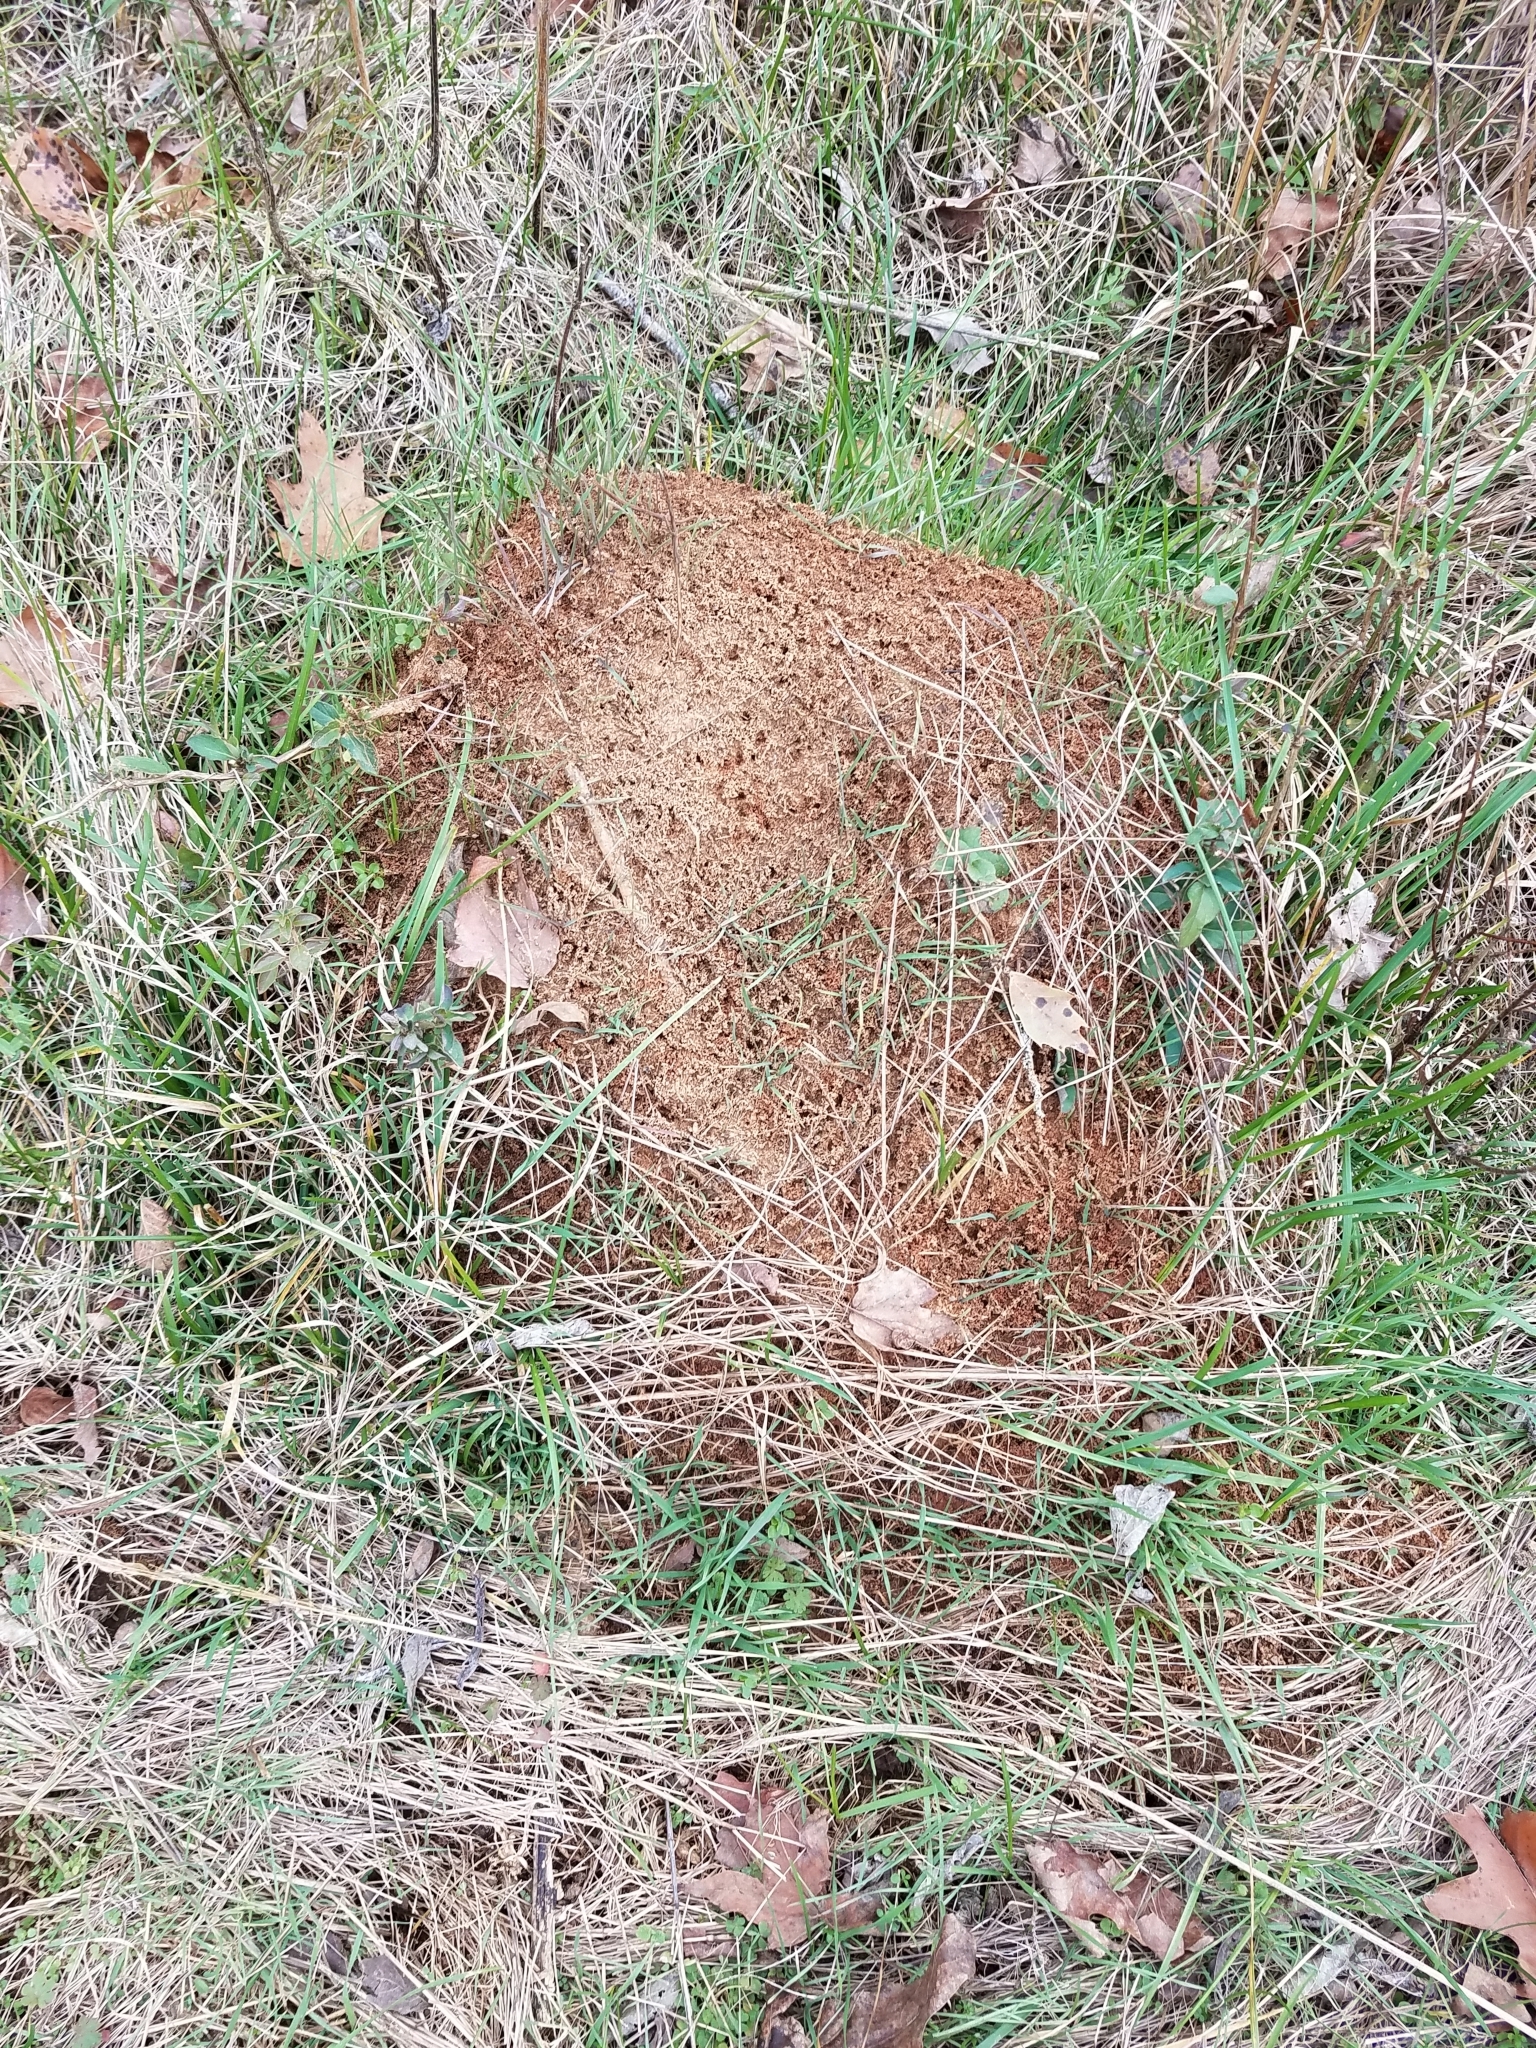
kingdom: Animalia
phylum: Arthropoda
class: Insecta
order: Hymenoptera
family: Formicidae
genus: Solenopsis
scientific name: Solenopsis invicta
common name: Red imported fire ant
